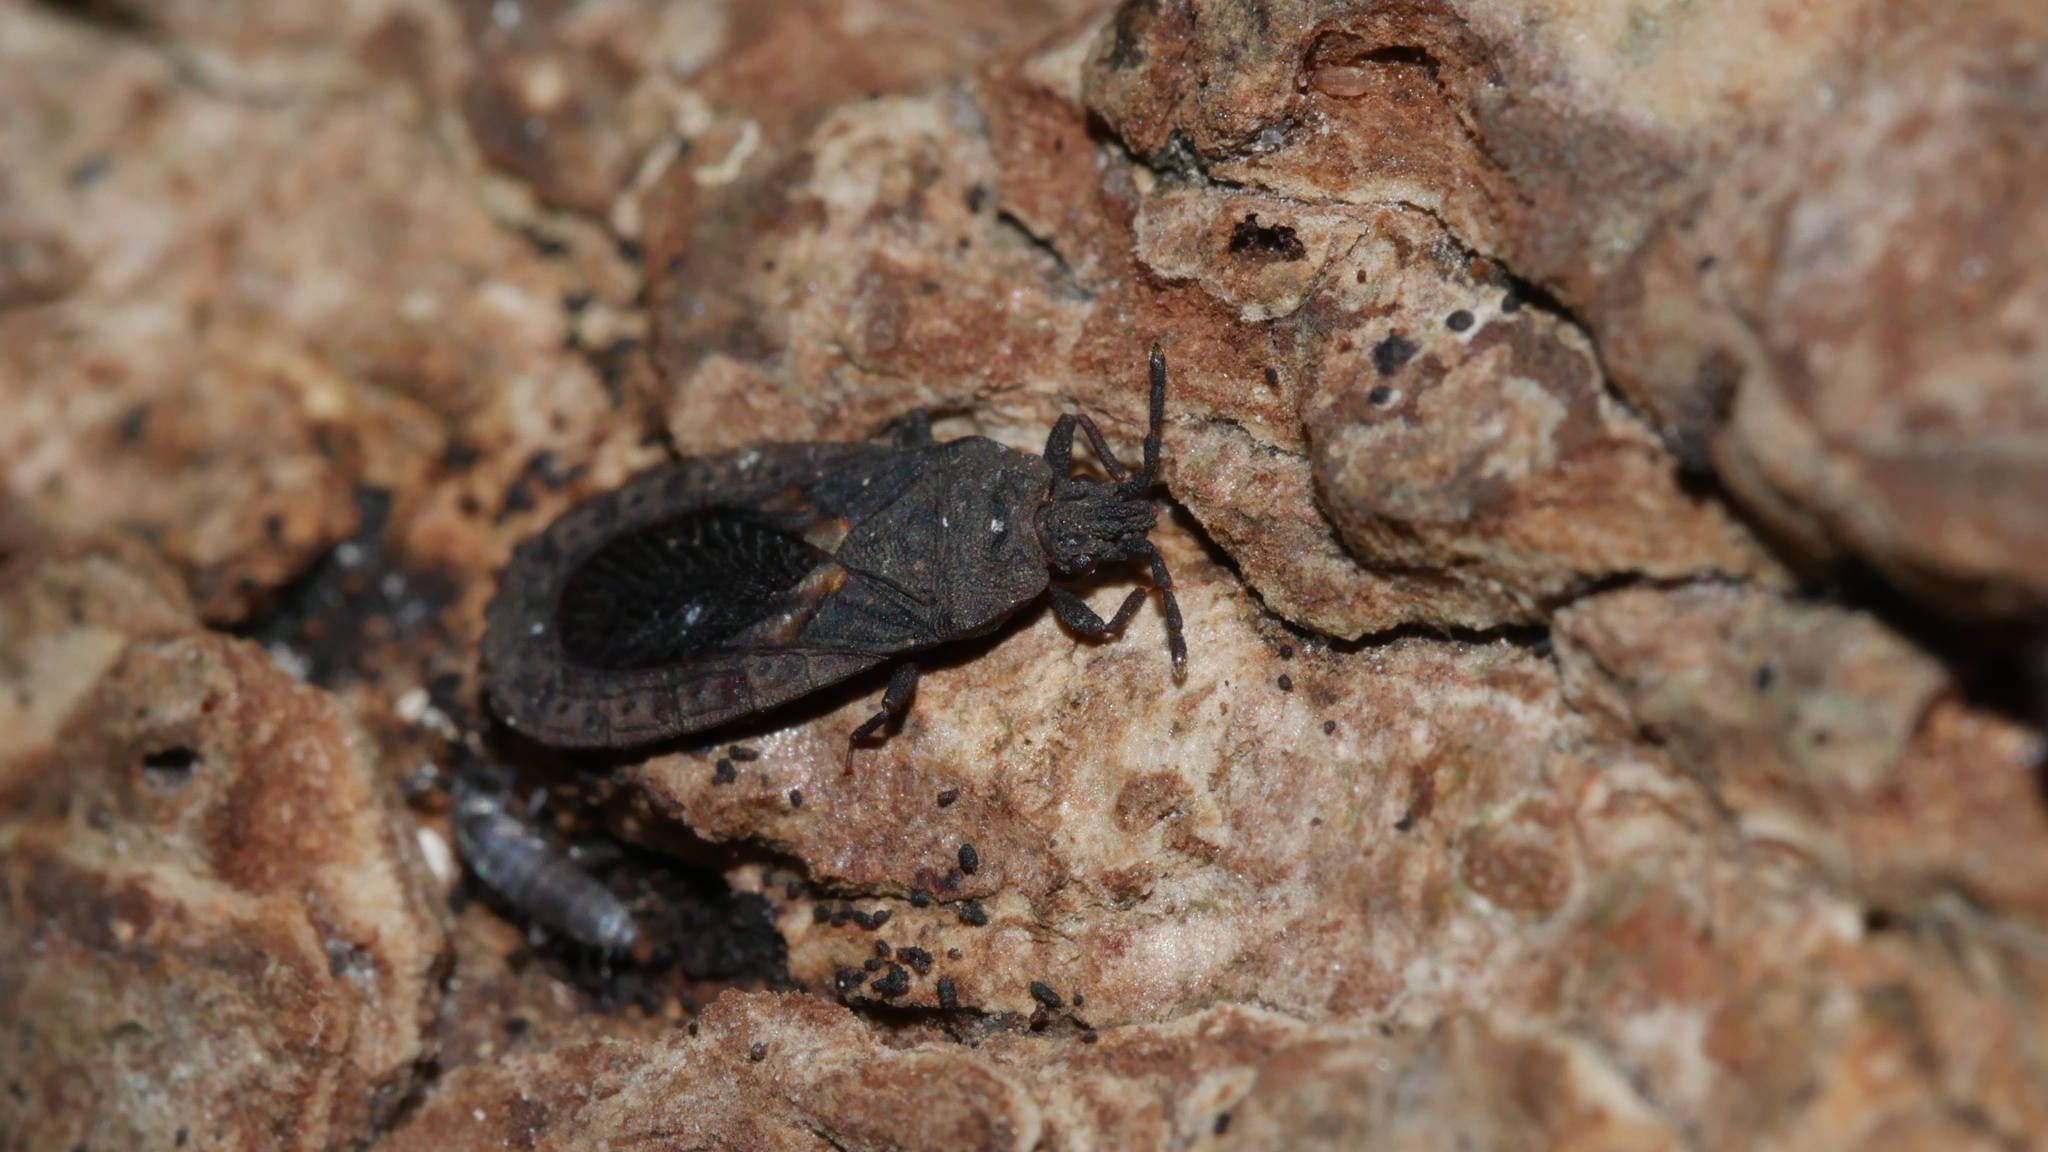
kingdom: Animalia
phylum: Arthropoda
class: Insecta
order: Hemiptera
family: Aradidae
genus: Neuroctenus
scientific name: Neuroctenus hopkinsi
